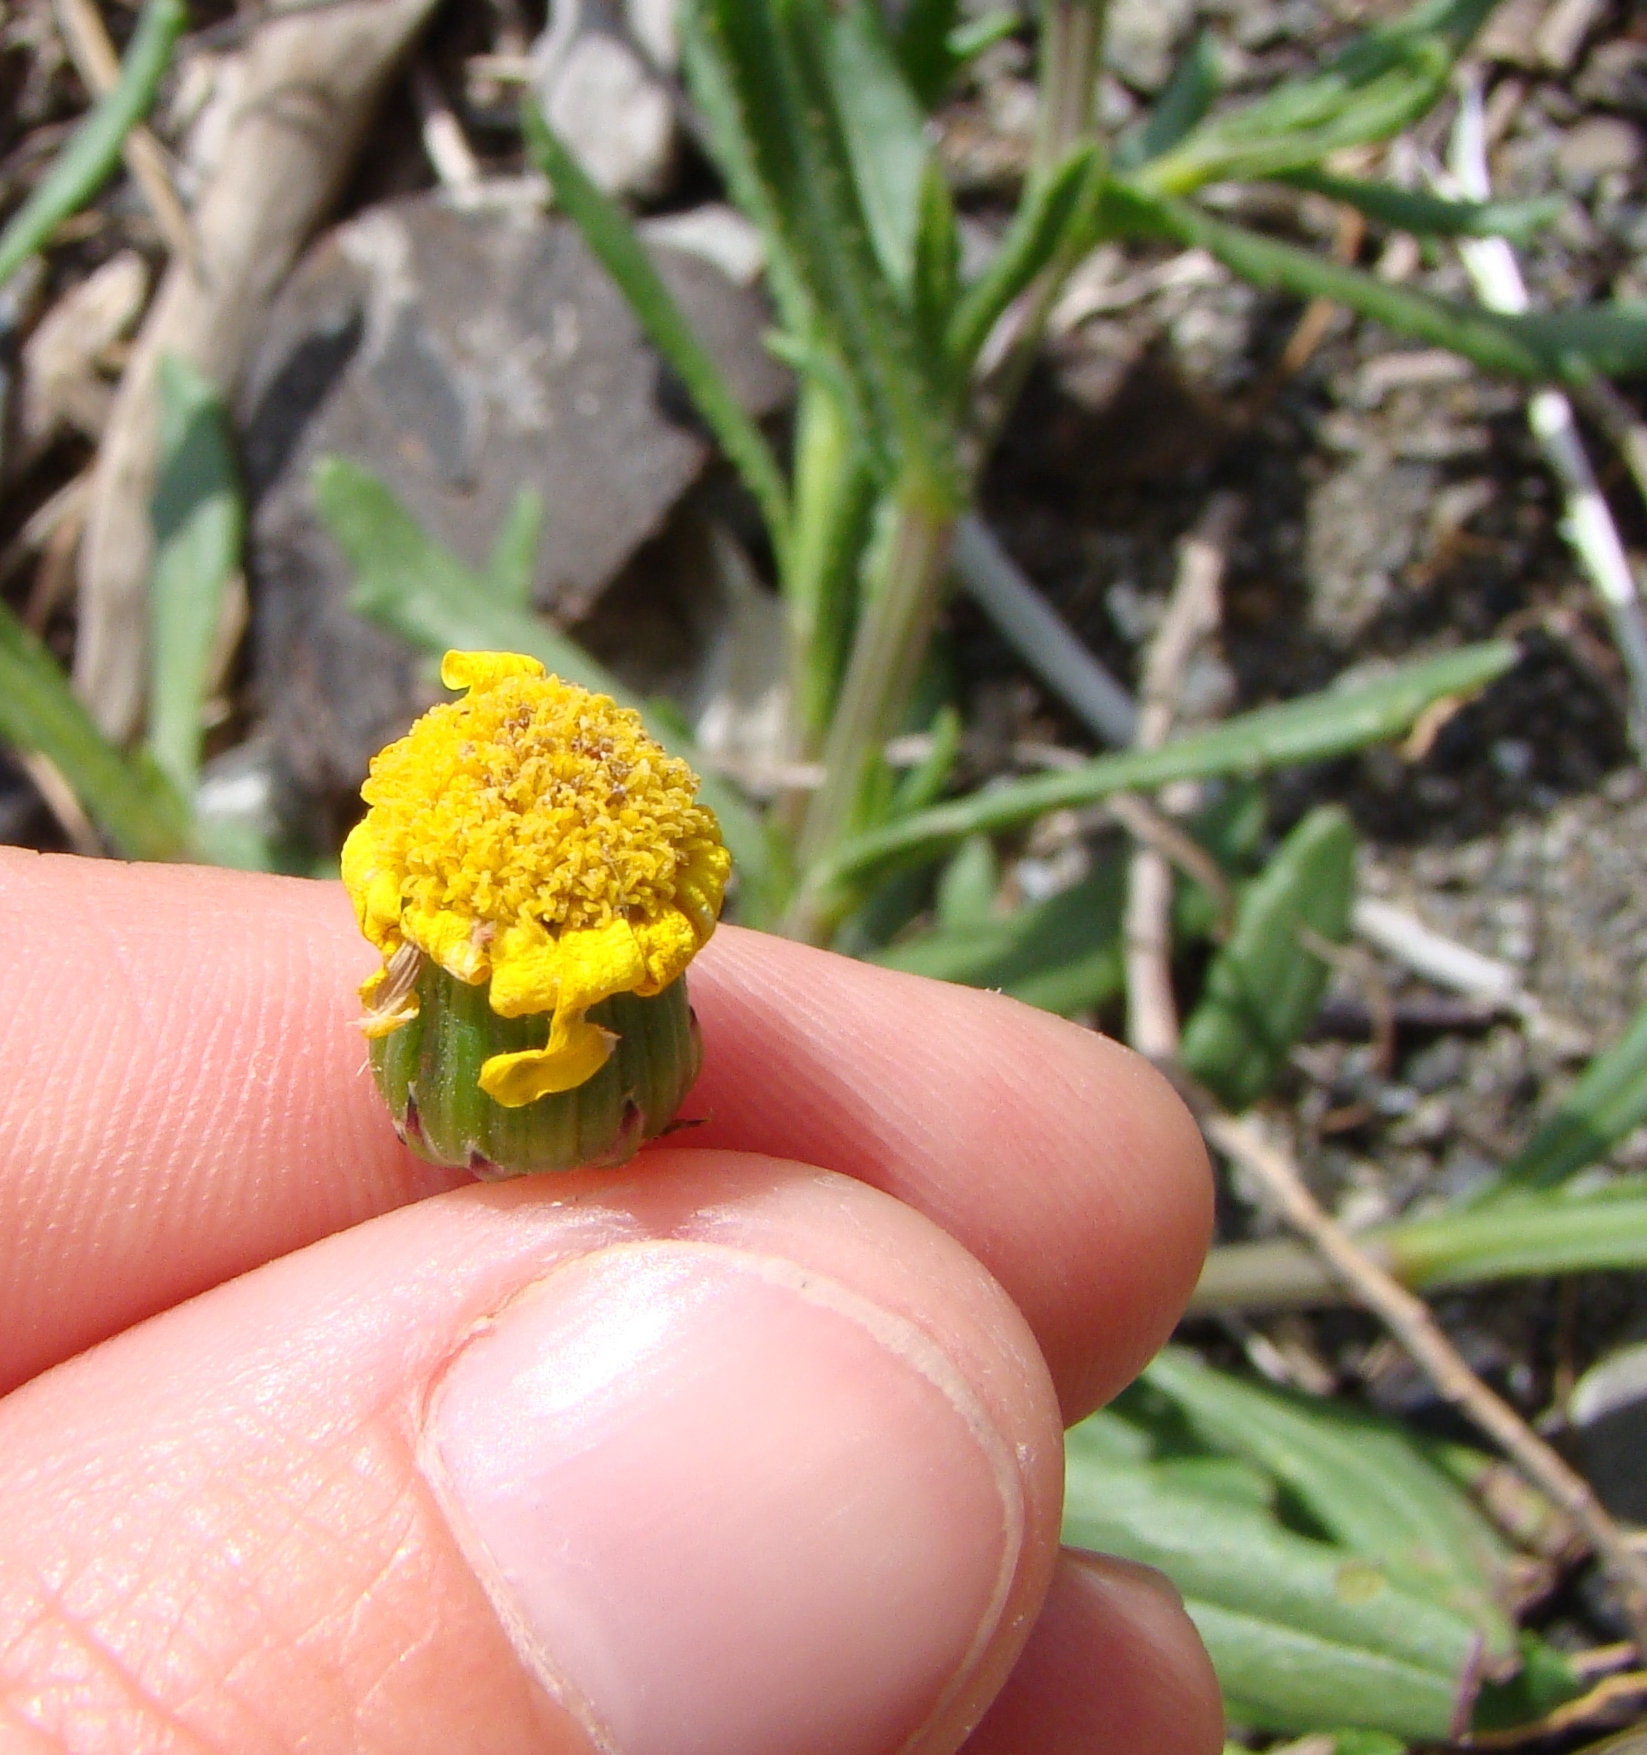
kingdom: Plantae
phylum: Tracheophyta
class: Magnoliopsida
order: Asterales
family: Asteraceae
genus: Senecio
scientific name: Senecio skirrhodon
